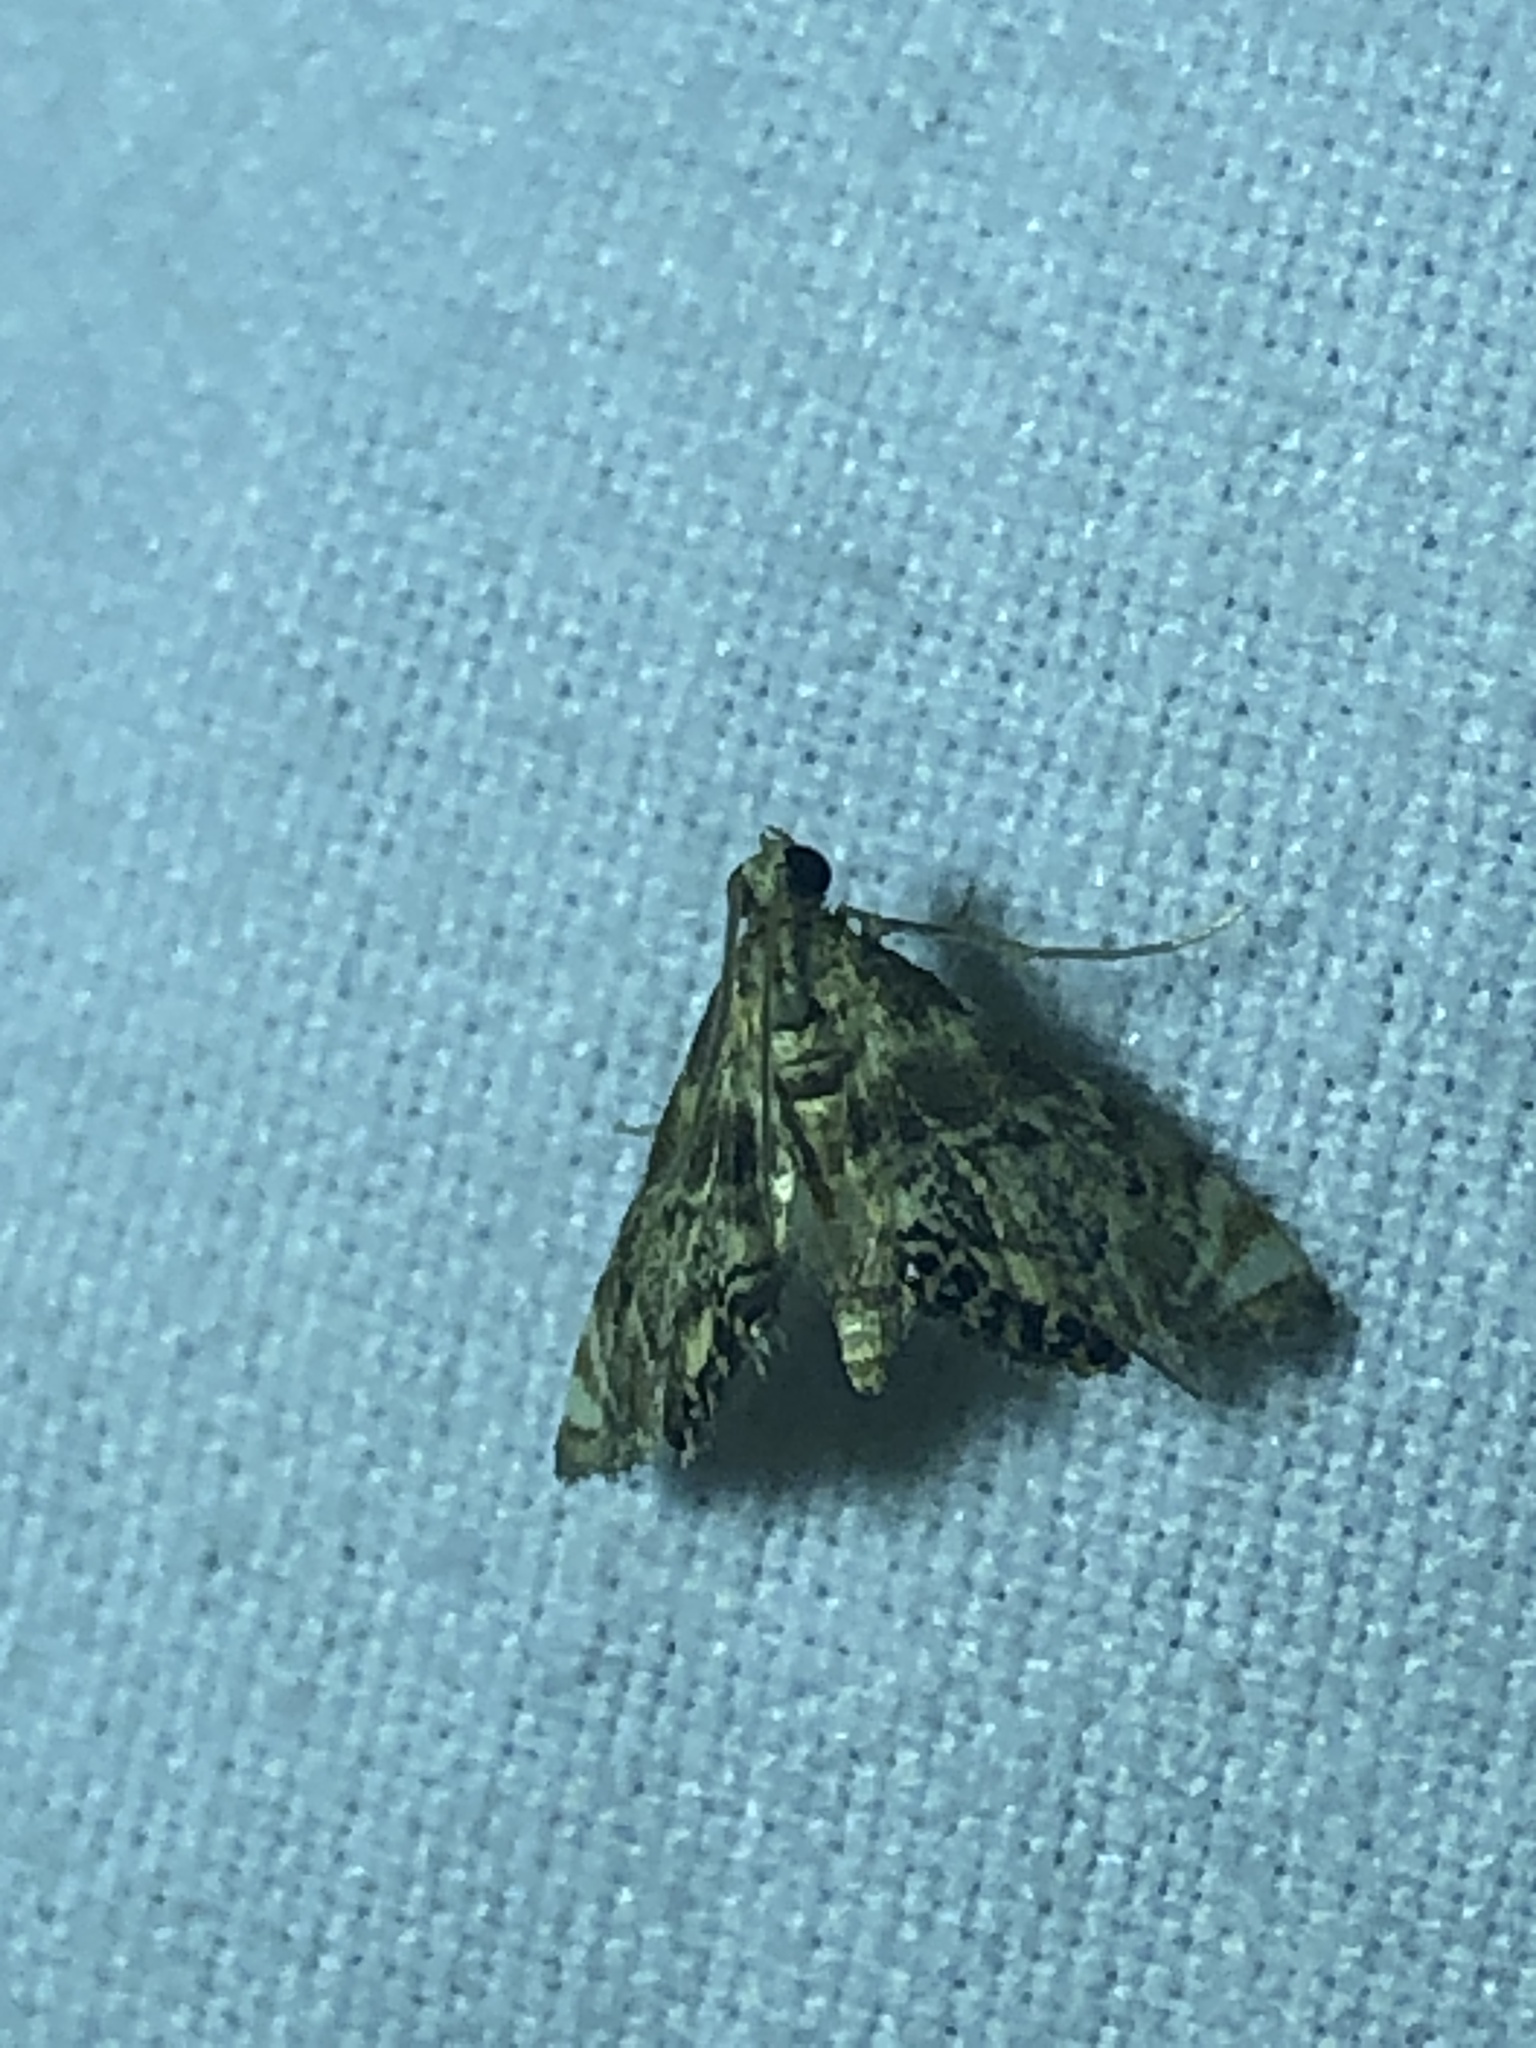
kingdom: Animalia
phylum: Arthropoda
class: Insecta
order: Lepidoptera
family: Crambidae
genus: Petrophila
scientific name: Petrophila fulicalis
